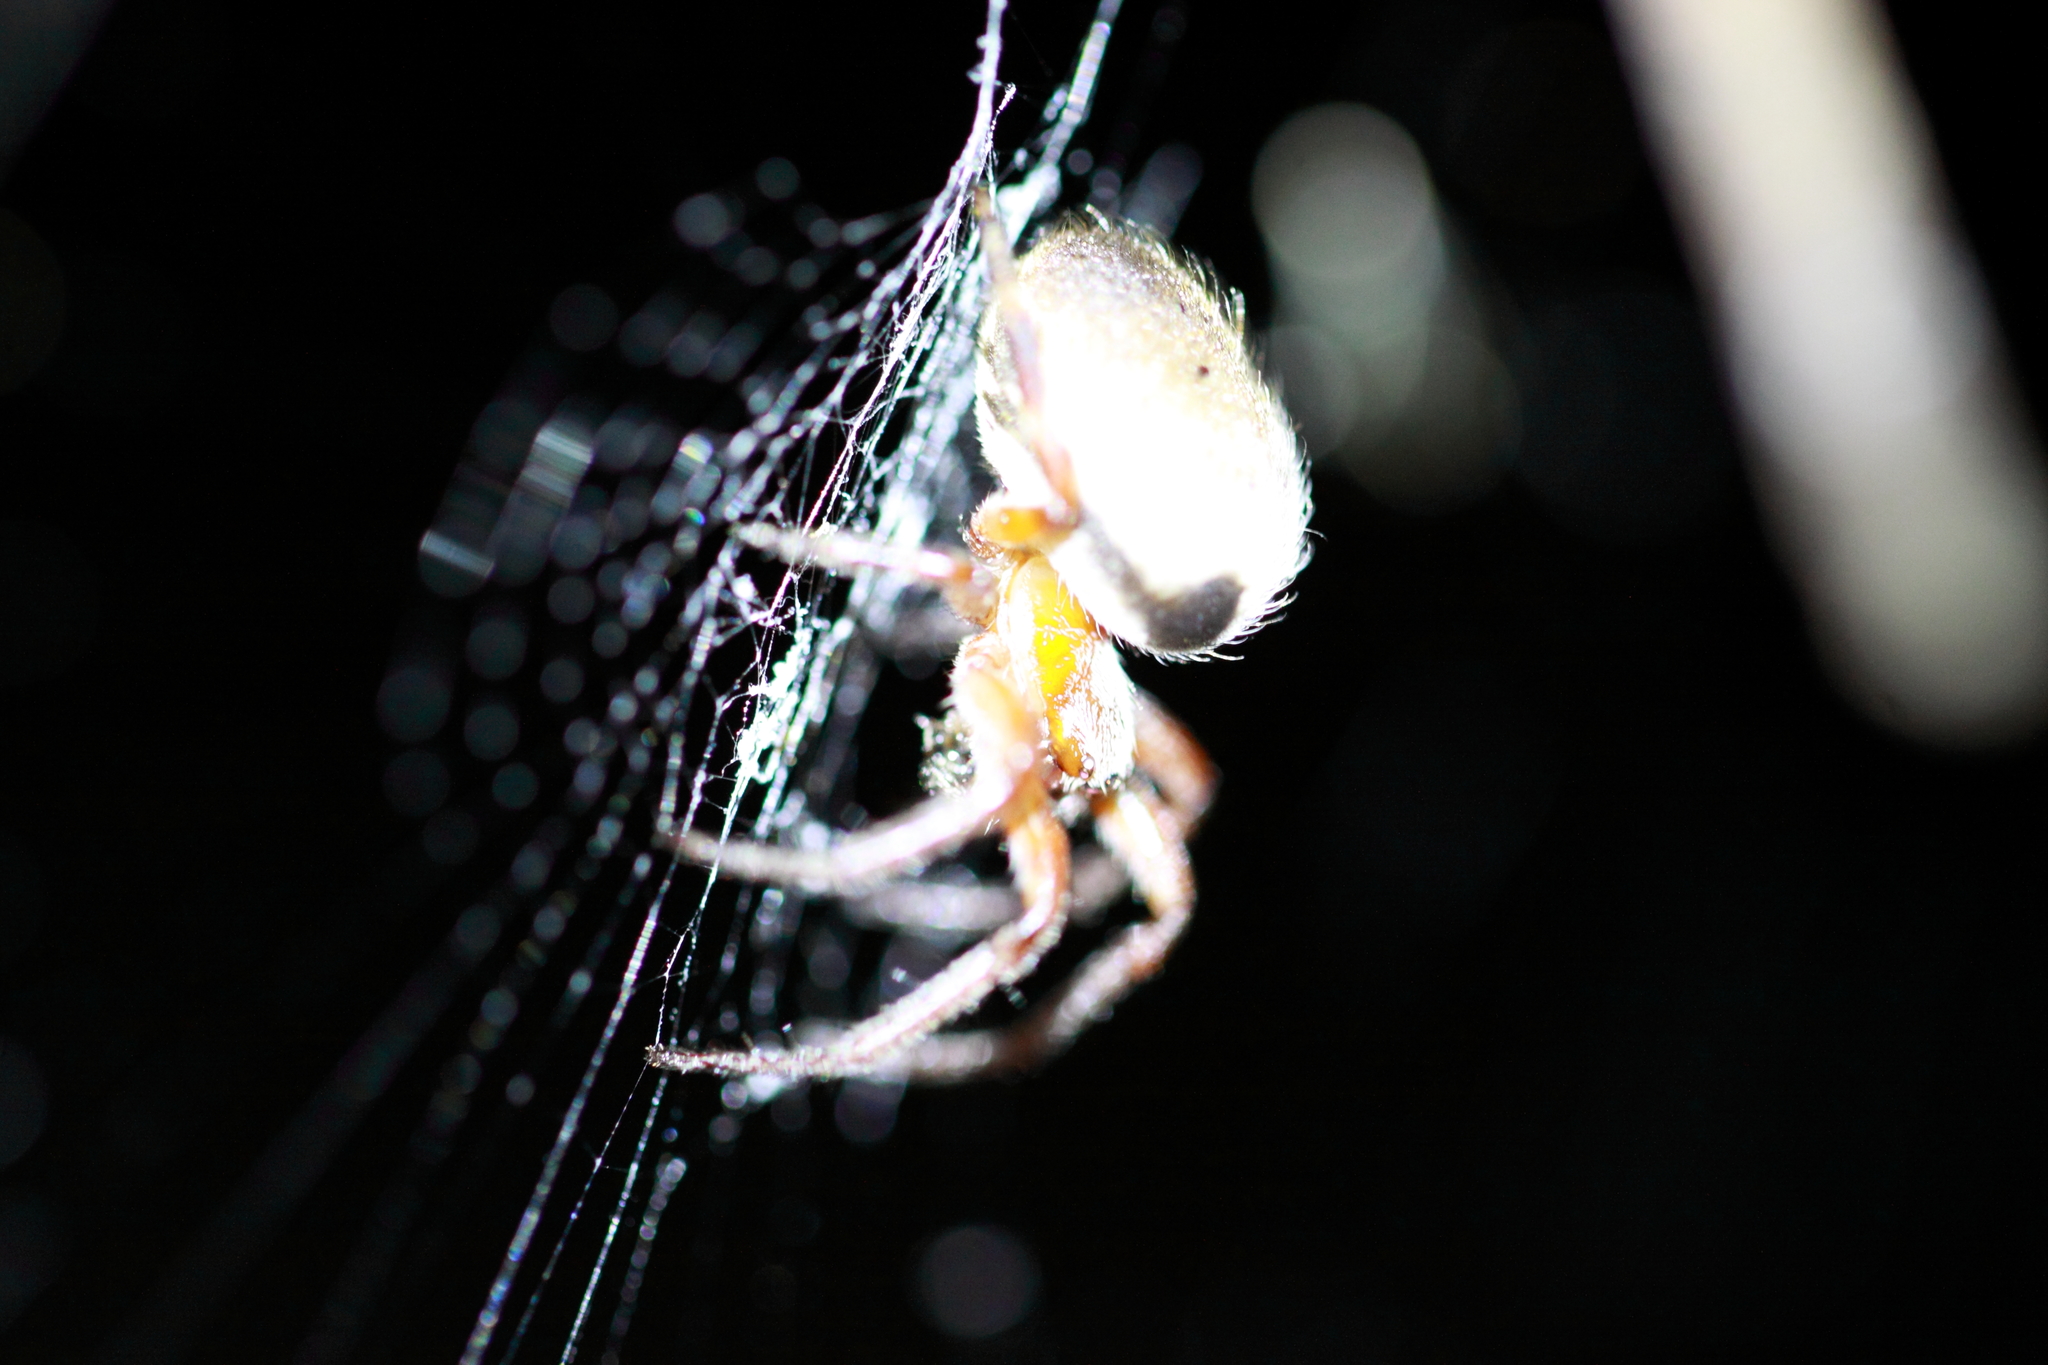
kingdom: Animalia
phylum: Arthropoda
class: Arachnida
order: Araneae
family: Araneidae
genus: Araneus
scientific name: Araneus dimidiatus
